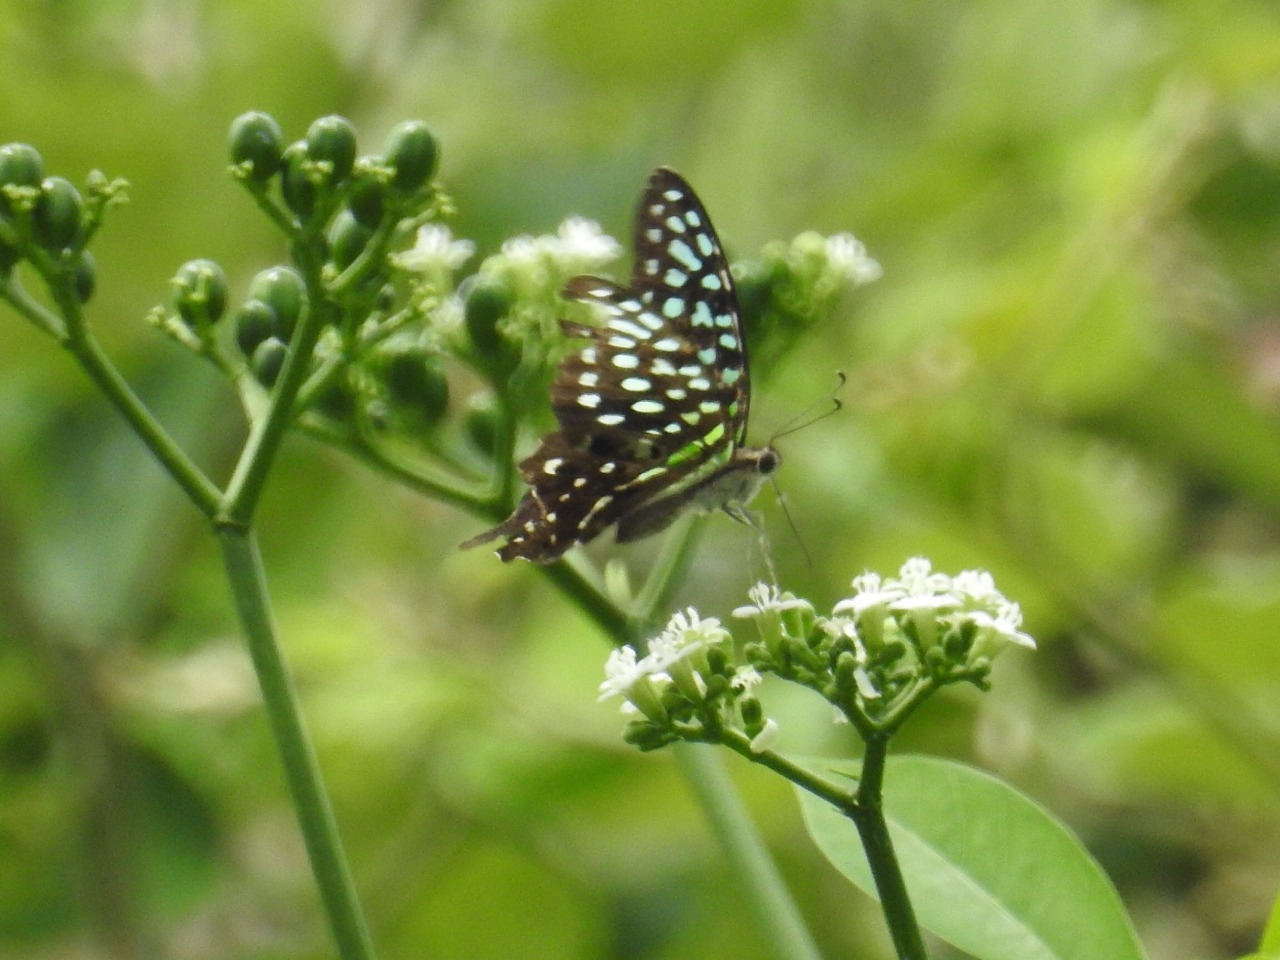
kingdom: Animalia
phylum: Arthropoda
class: Insecta
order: Lepidoptera
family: Papilionidae
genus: Graphium
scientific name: Graphium agamemnon
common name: Tailed jay
